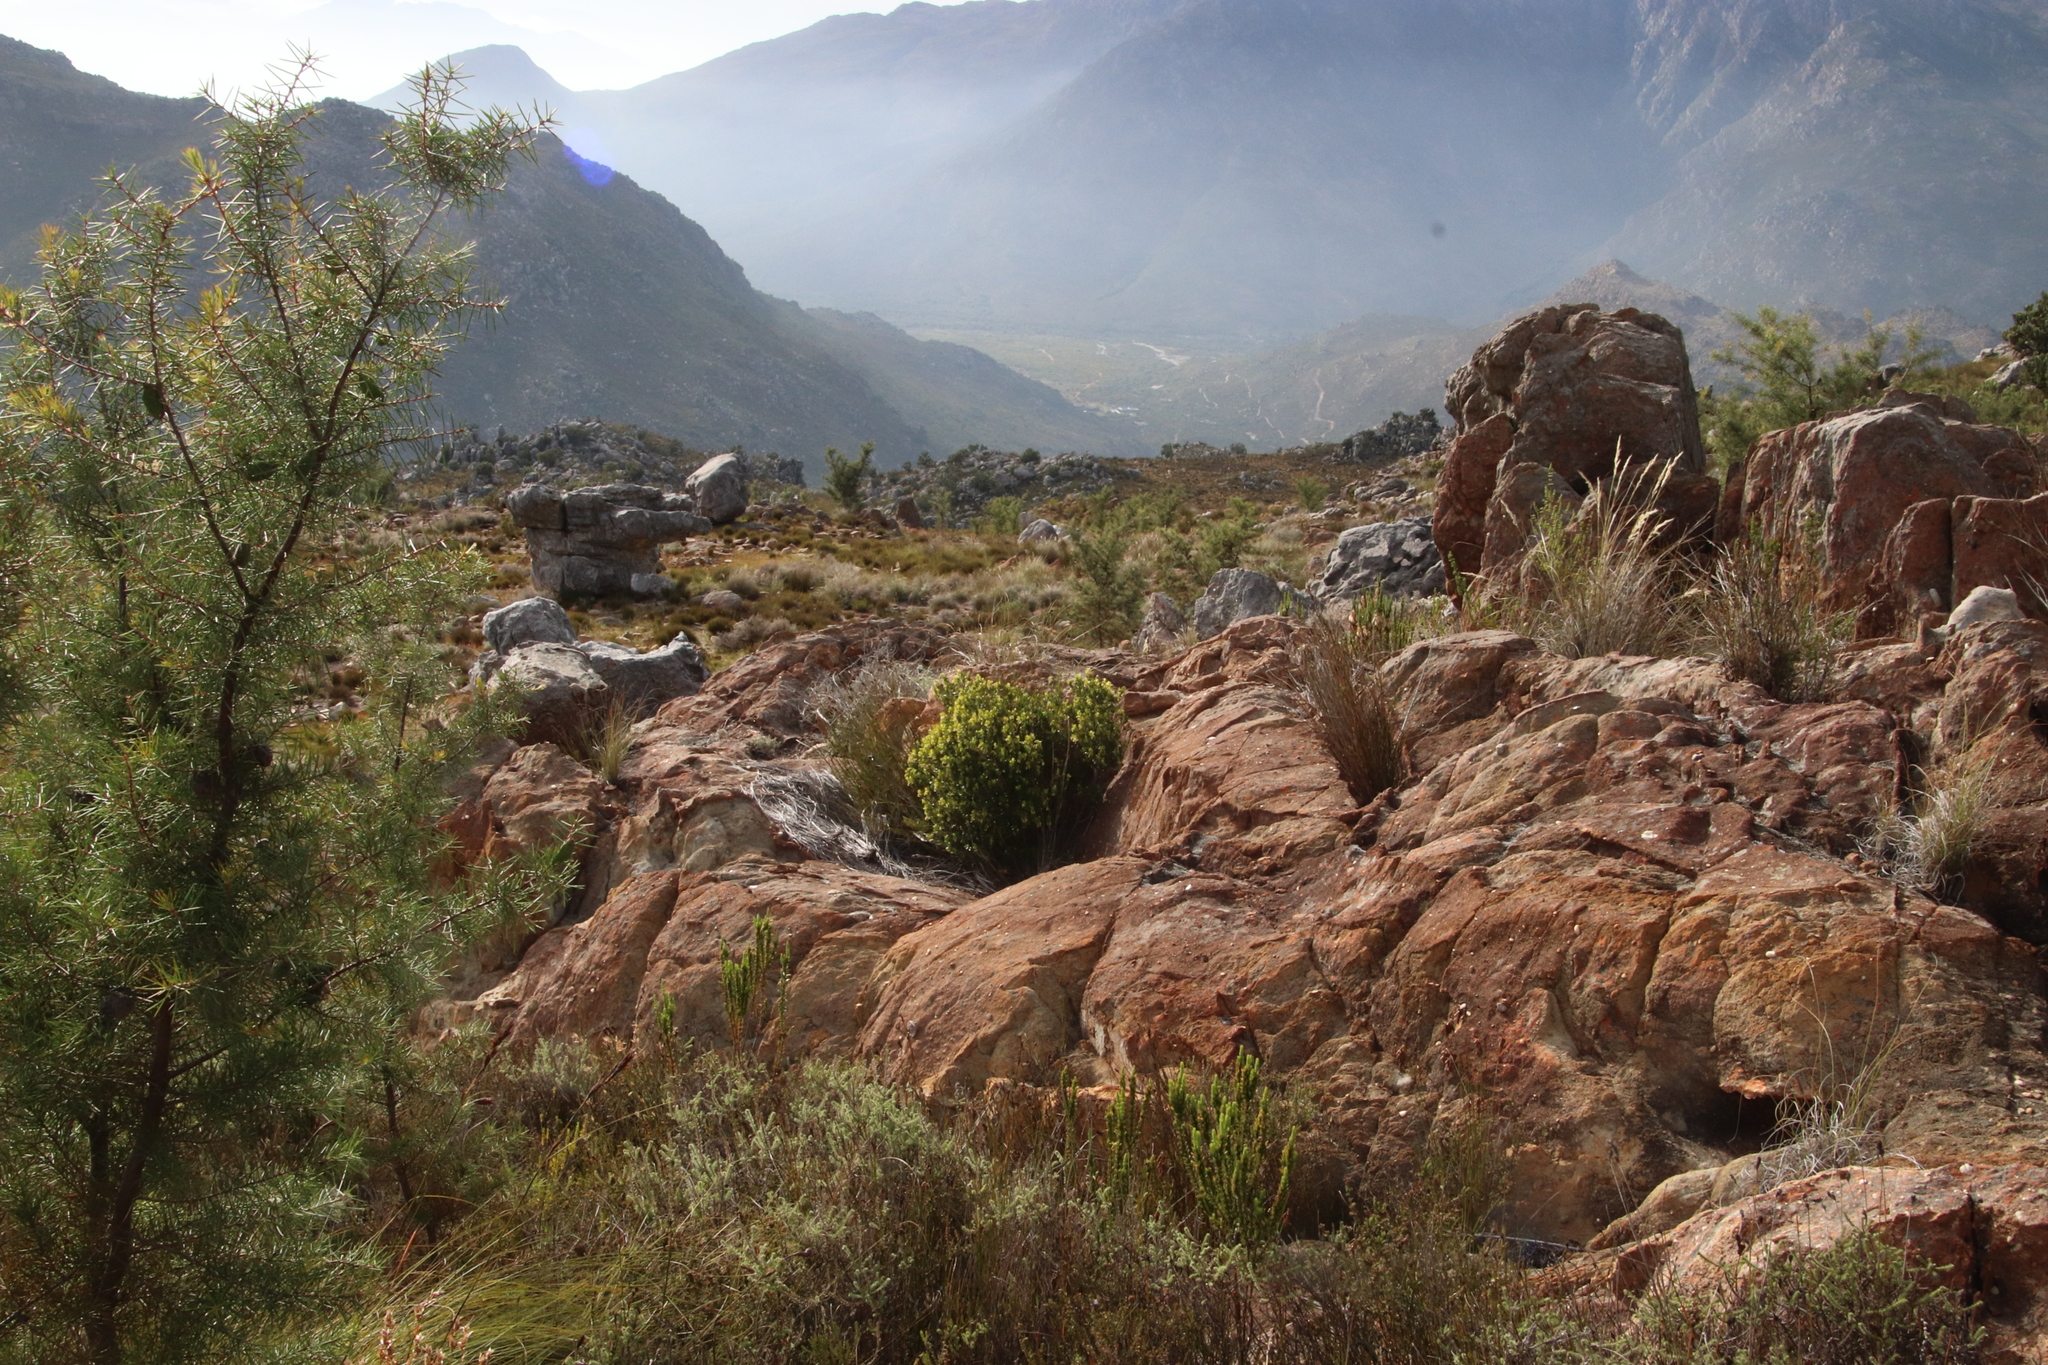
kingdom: Plantae
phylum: Tracheophyta
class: Magnoliopsida
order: Ericales
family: Ebenaceae
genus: Diospyros
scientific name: Diospyros glabra
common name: Fynbos star apple
